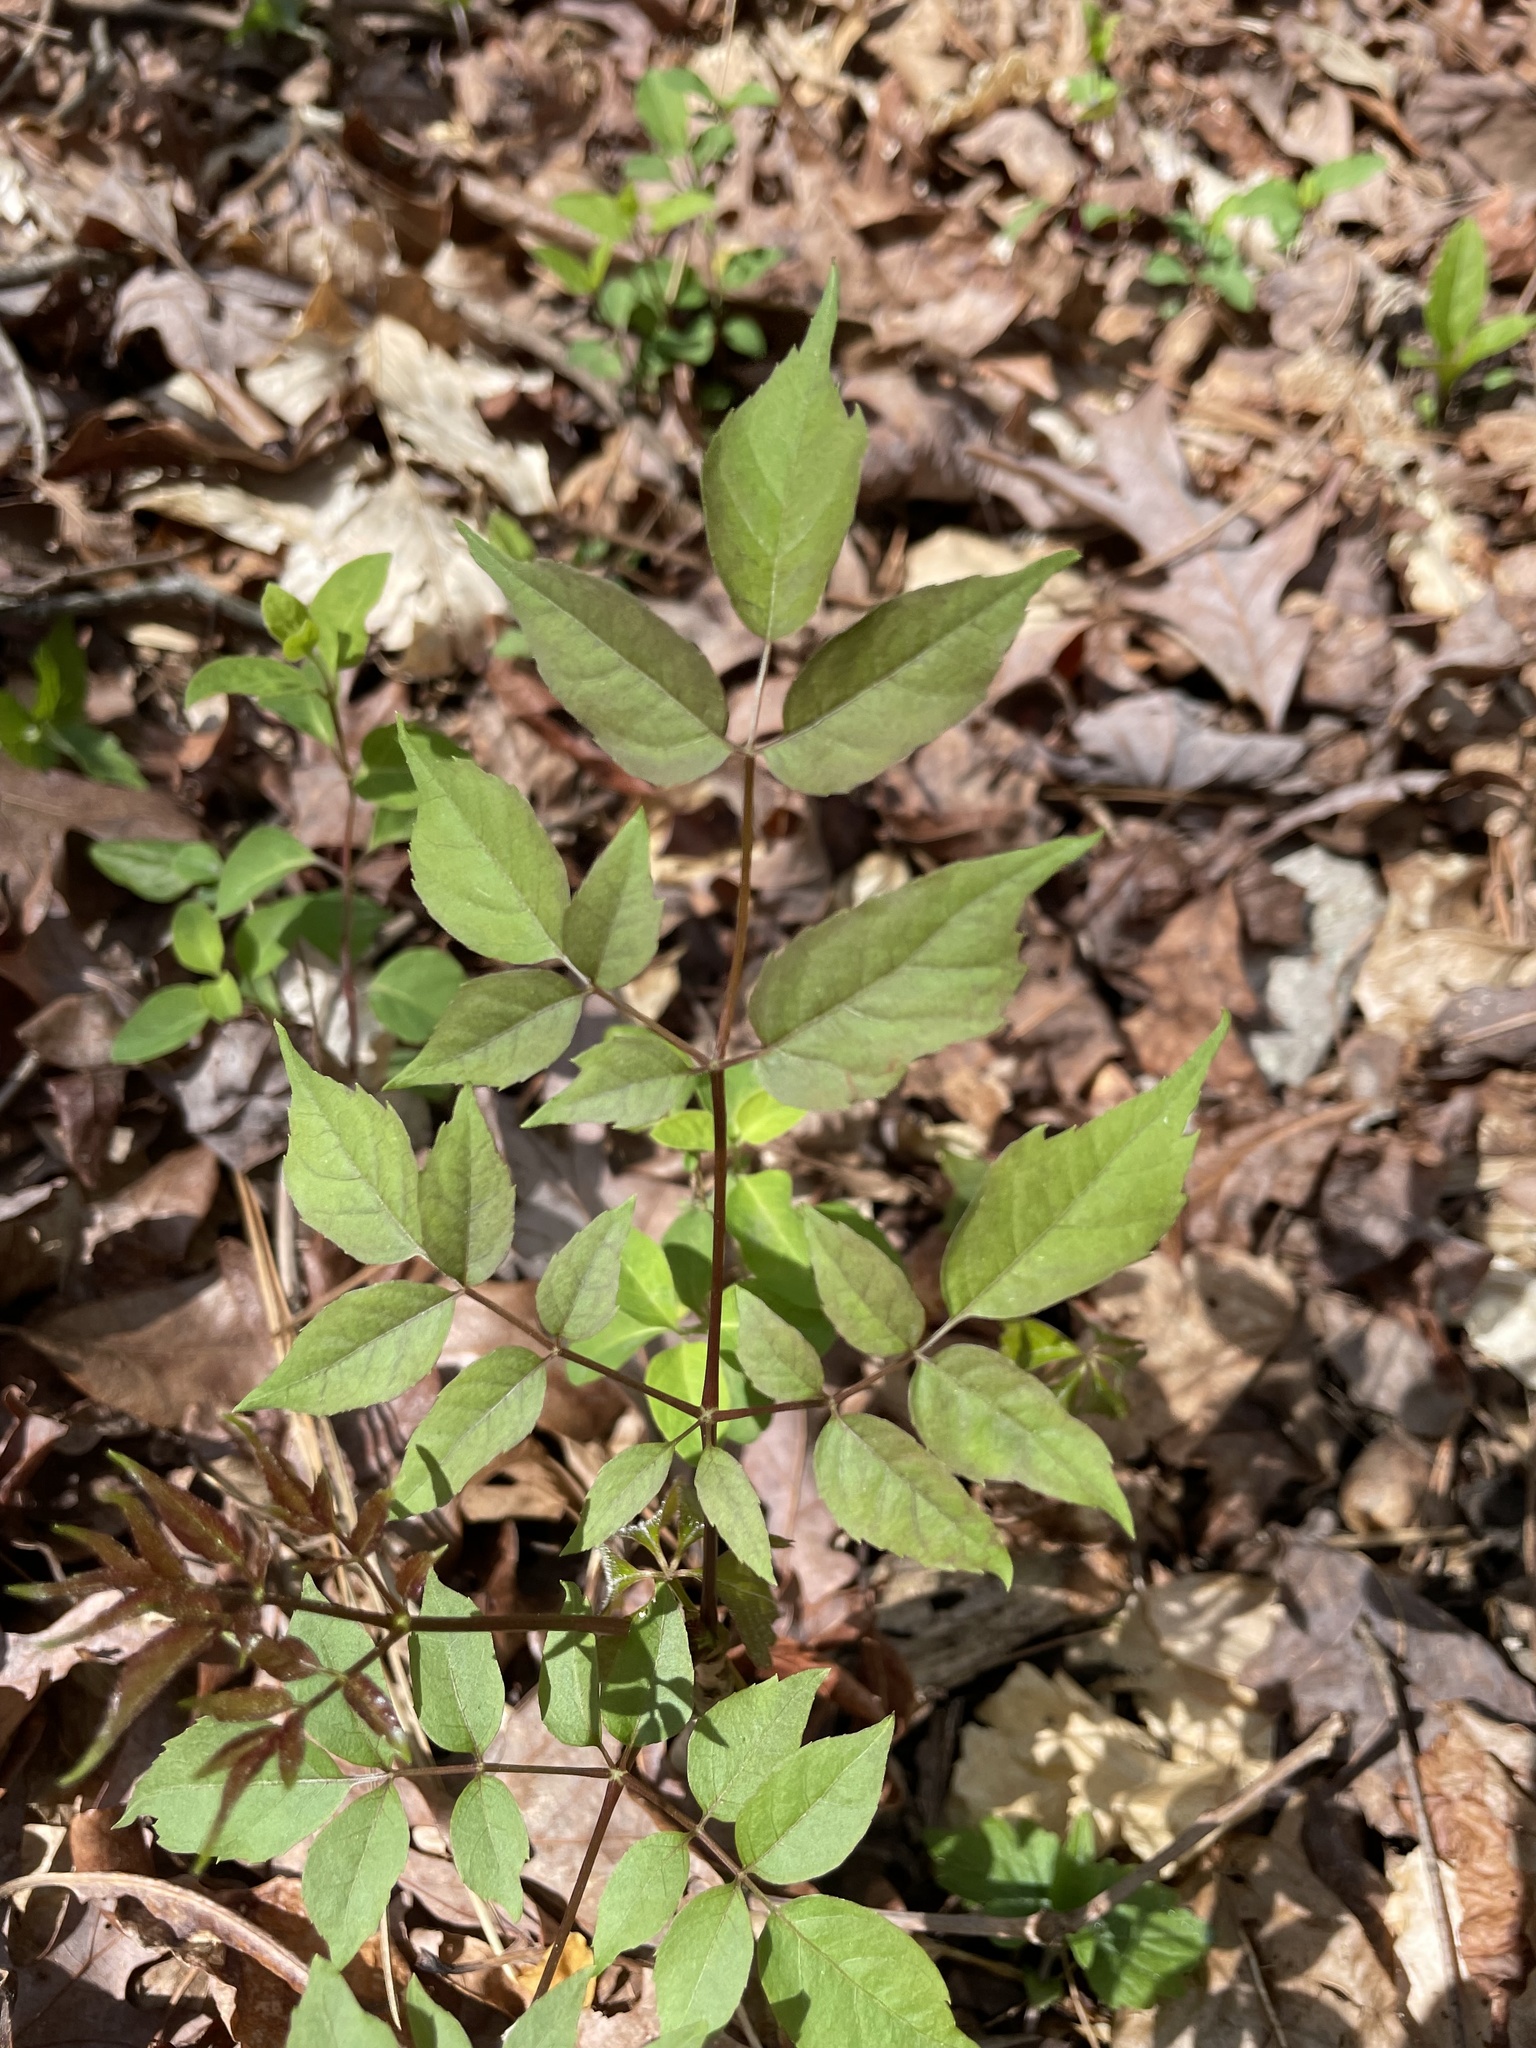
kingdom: Plantae
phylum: Tracheophyta
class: Magnoliopsida
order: Apiales
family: Araliaceae
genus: Aralia
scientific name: Aralia spinosa
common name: Hercules'-club
